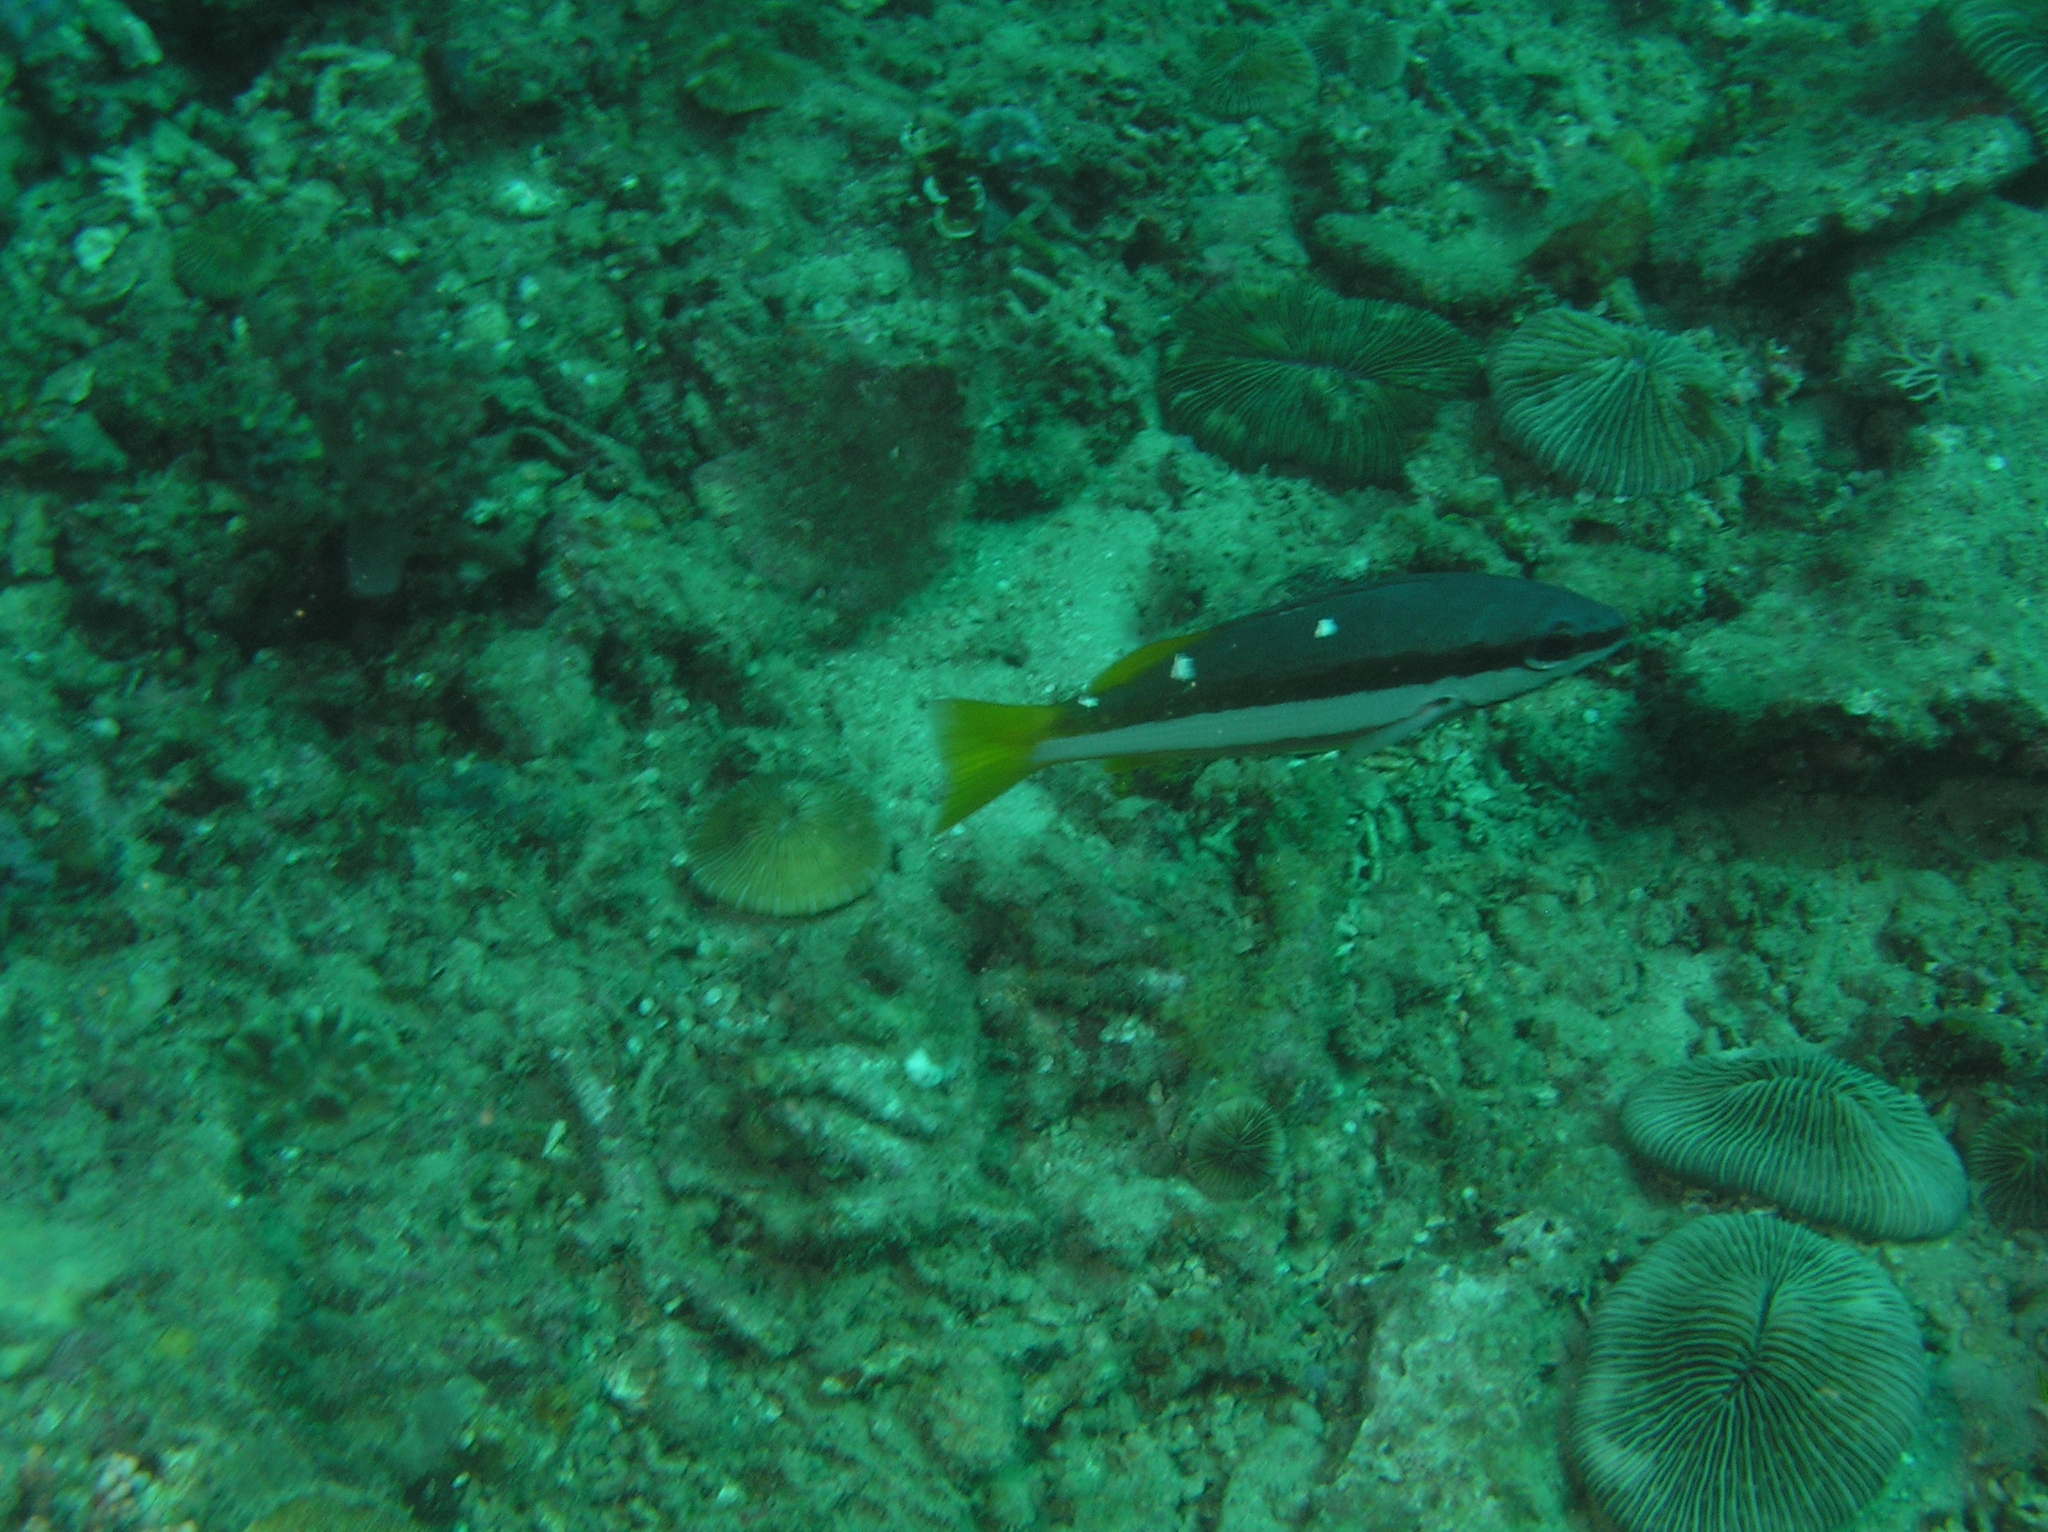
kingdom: Animalia
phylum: Chordata
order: Perciformes
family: Lutjanidae
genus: Lutjanus
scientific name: Lutjanus biguttatus
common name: Two-spot snapper
